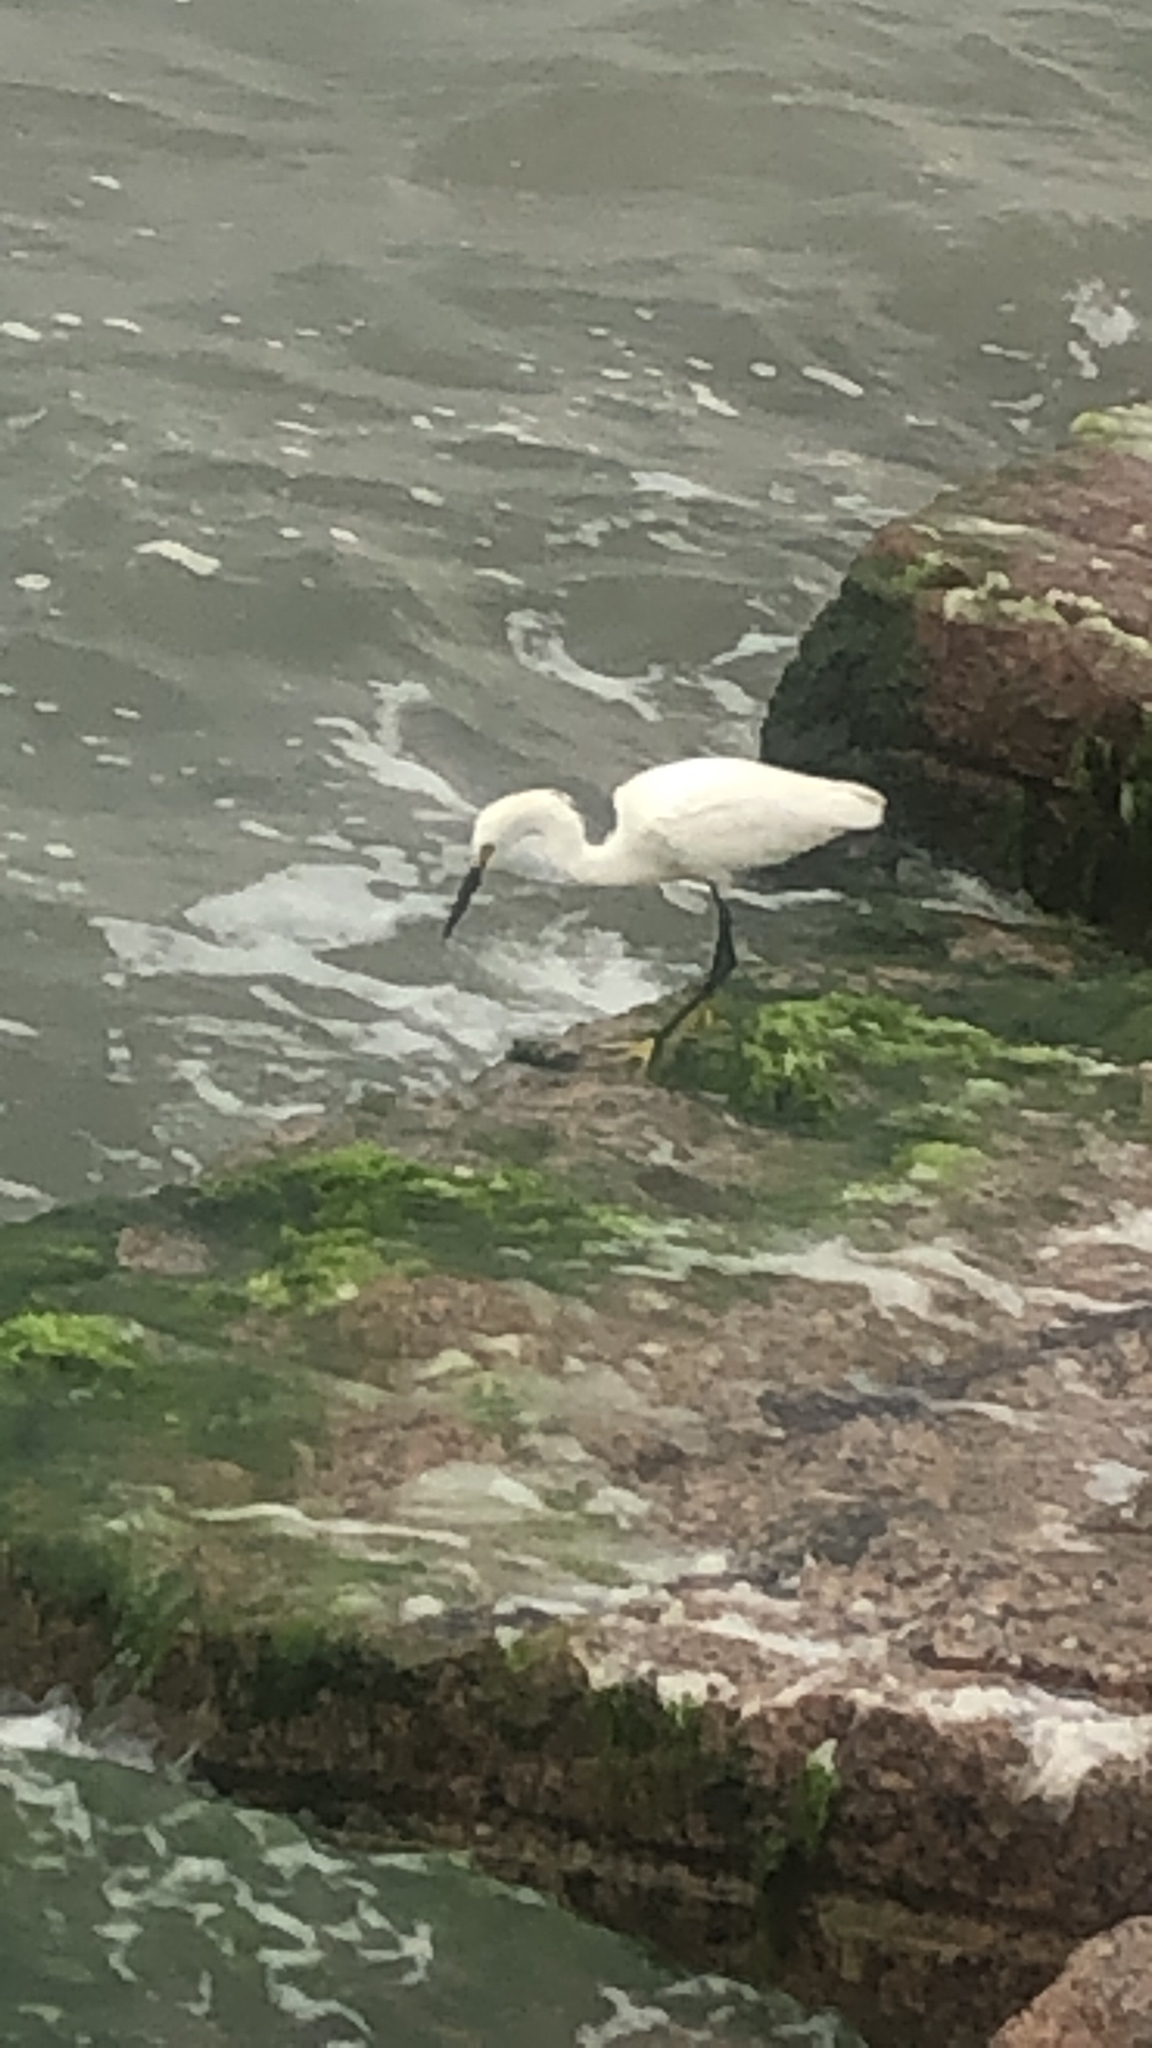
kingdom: Animalia
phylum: Chordata
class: Aves
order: Pelecaniformes
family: Ardeidae
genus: Egretta
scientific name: Egretta thula
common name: Snowy egret
